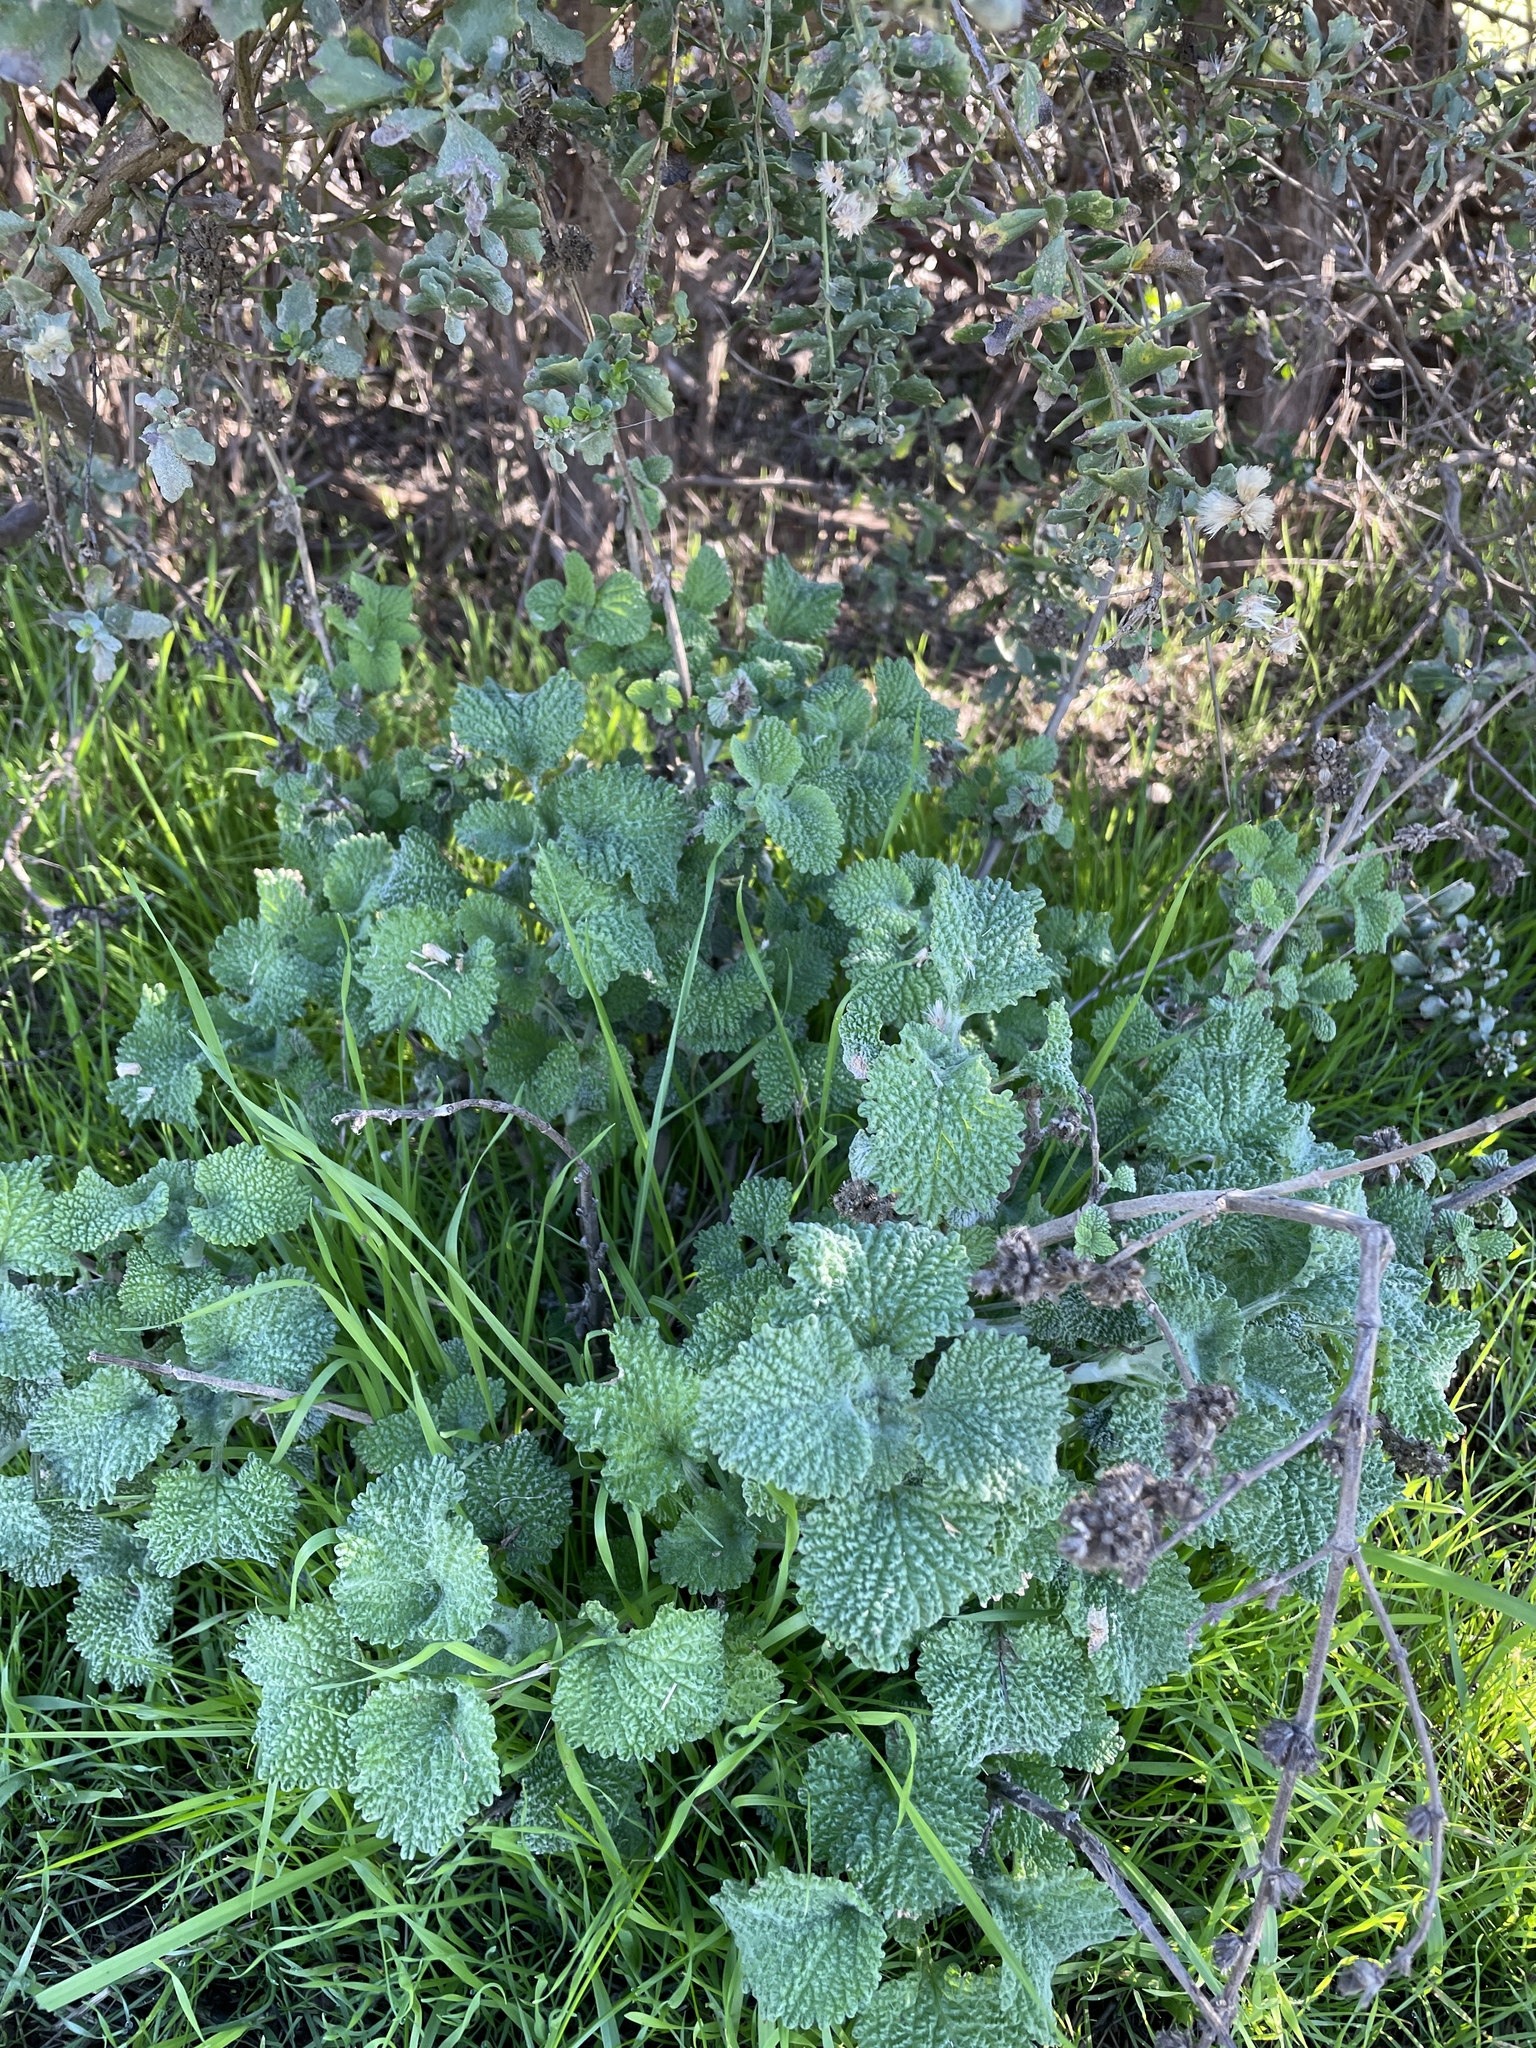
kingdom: Plantae
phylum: Tracheophyta
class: Magnoliopsida
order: Lamiales
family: Lamiaceae
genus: Marrubium
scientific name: Marrubium vulgare
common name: Horehound
